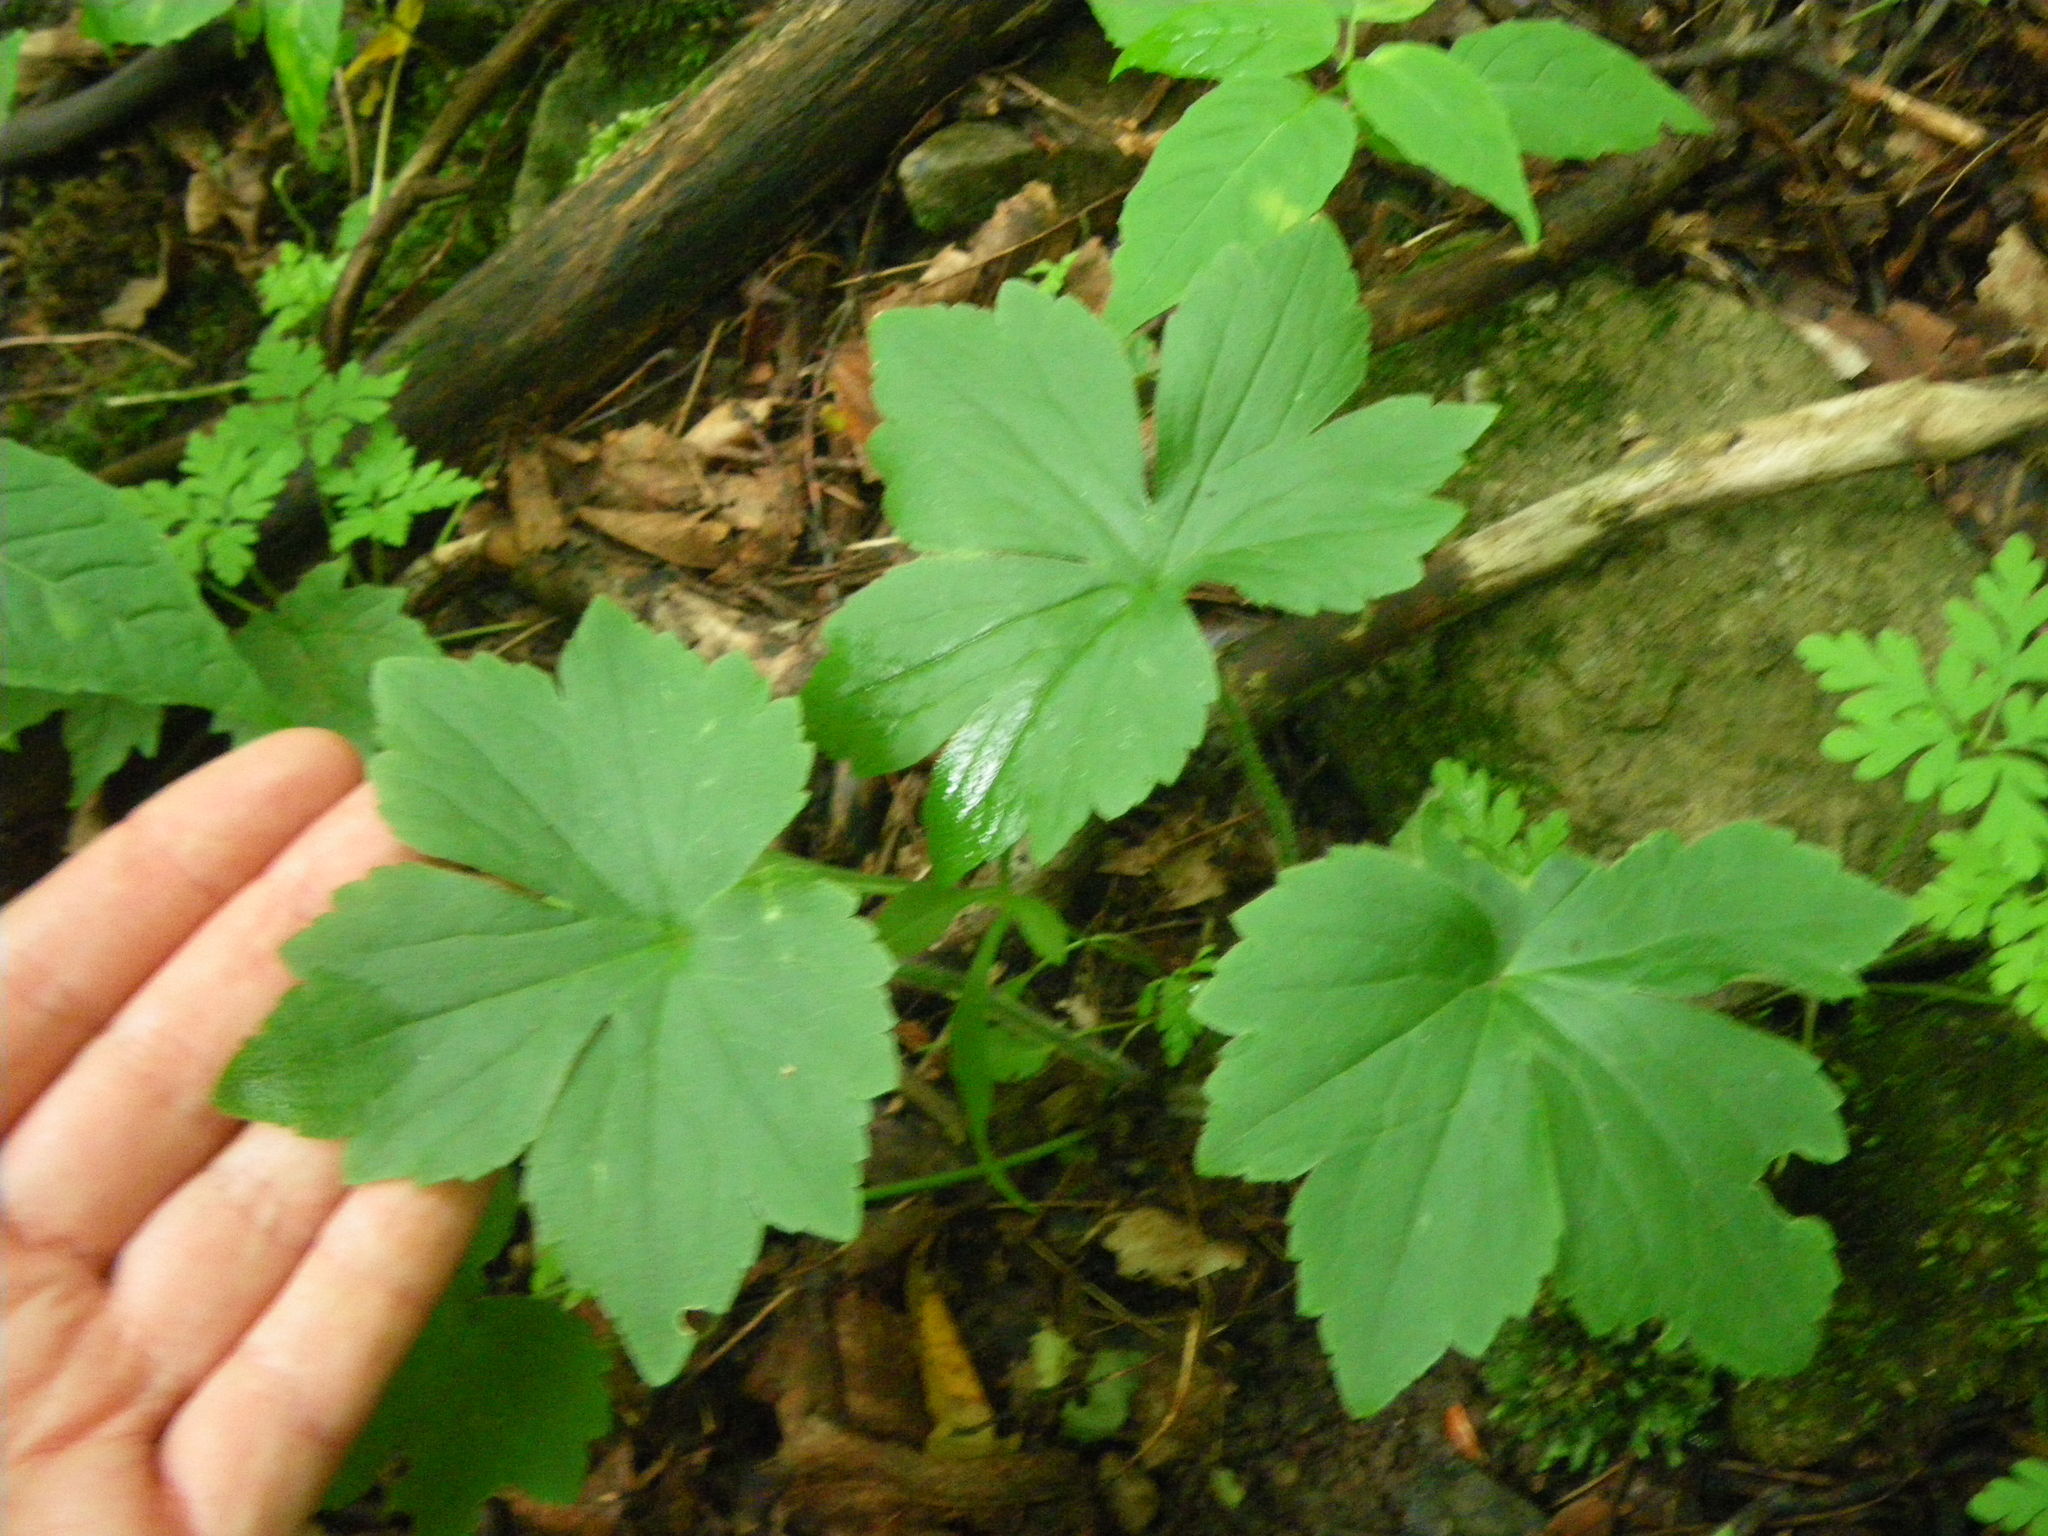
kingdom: Plantae
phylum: Tracheophyta
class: Magnoliopsida
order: Ranunculales
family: Ranunculaceae
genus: Ranunculus
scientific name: Ranunculus recurvatus
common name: Blisterwort
